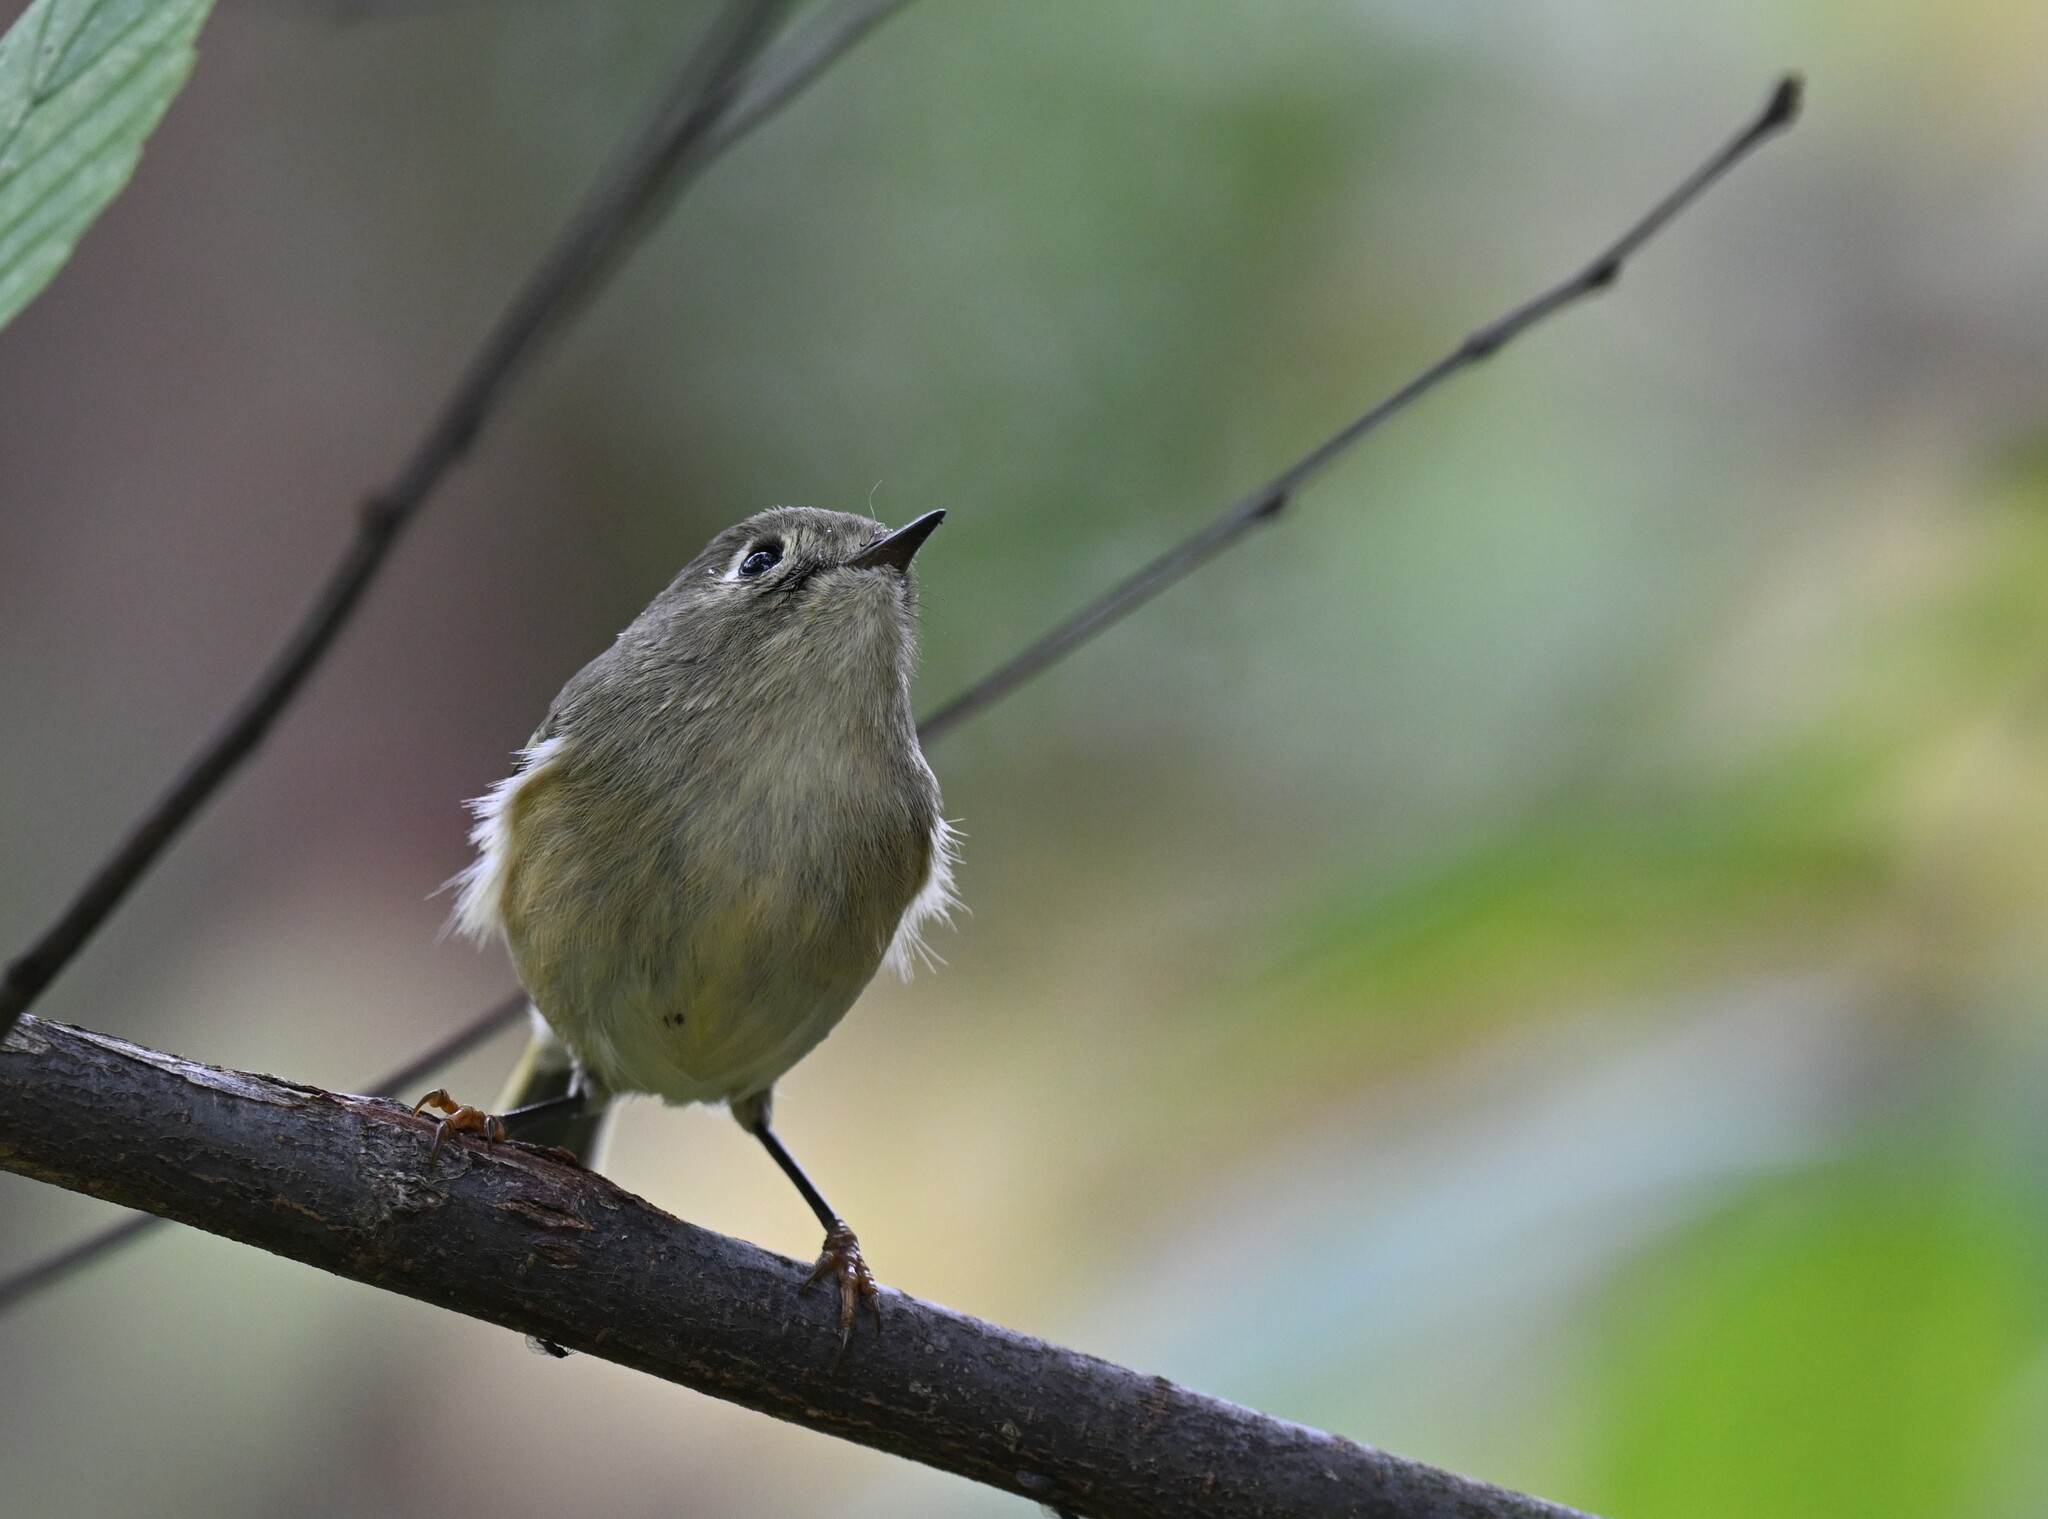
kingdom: Animalia
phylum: Chordata
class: Aves
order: Passeriformes
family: Regulidae
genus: Regulus
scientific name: Regulus calendula
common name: Ruby-crowned kinglet
